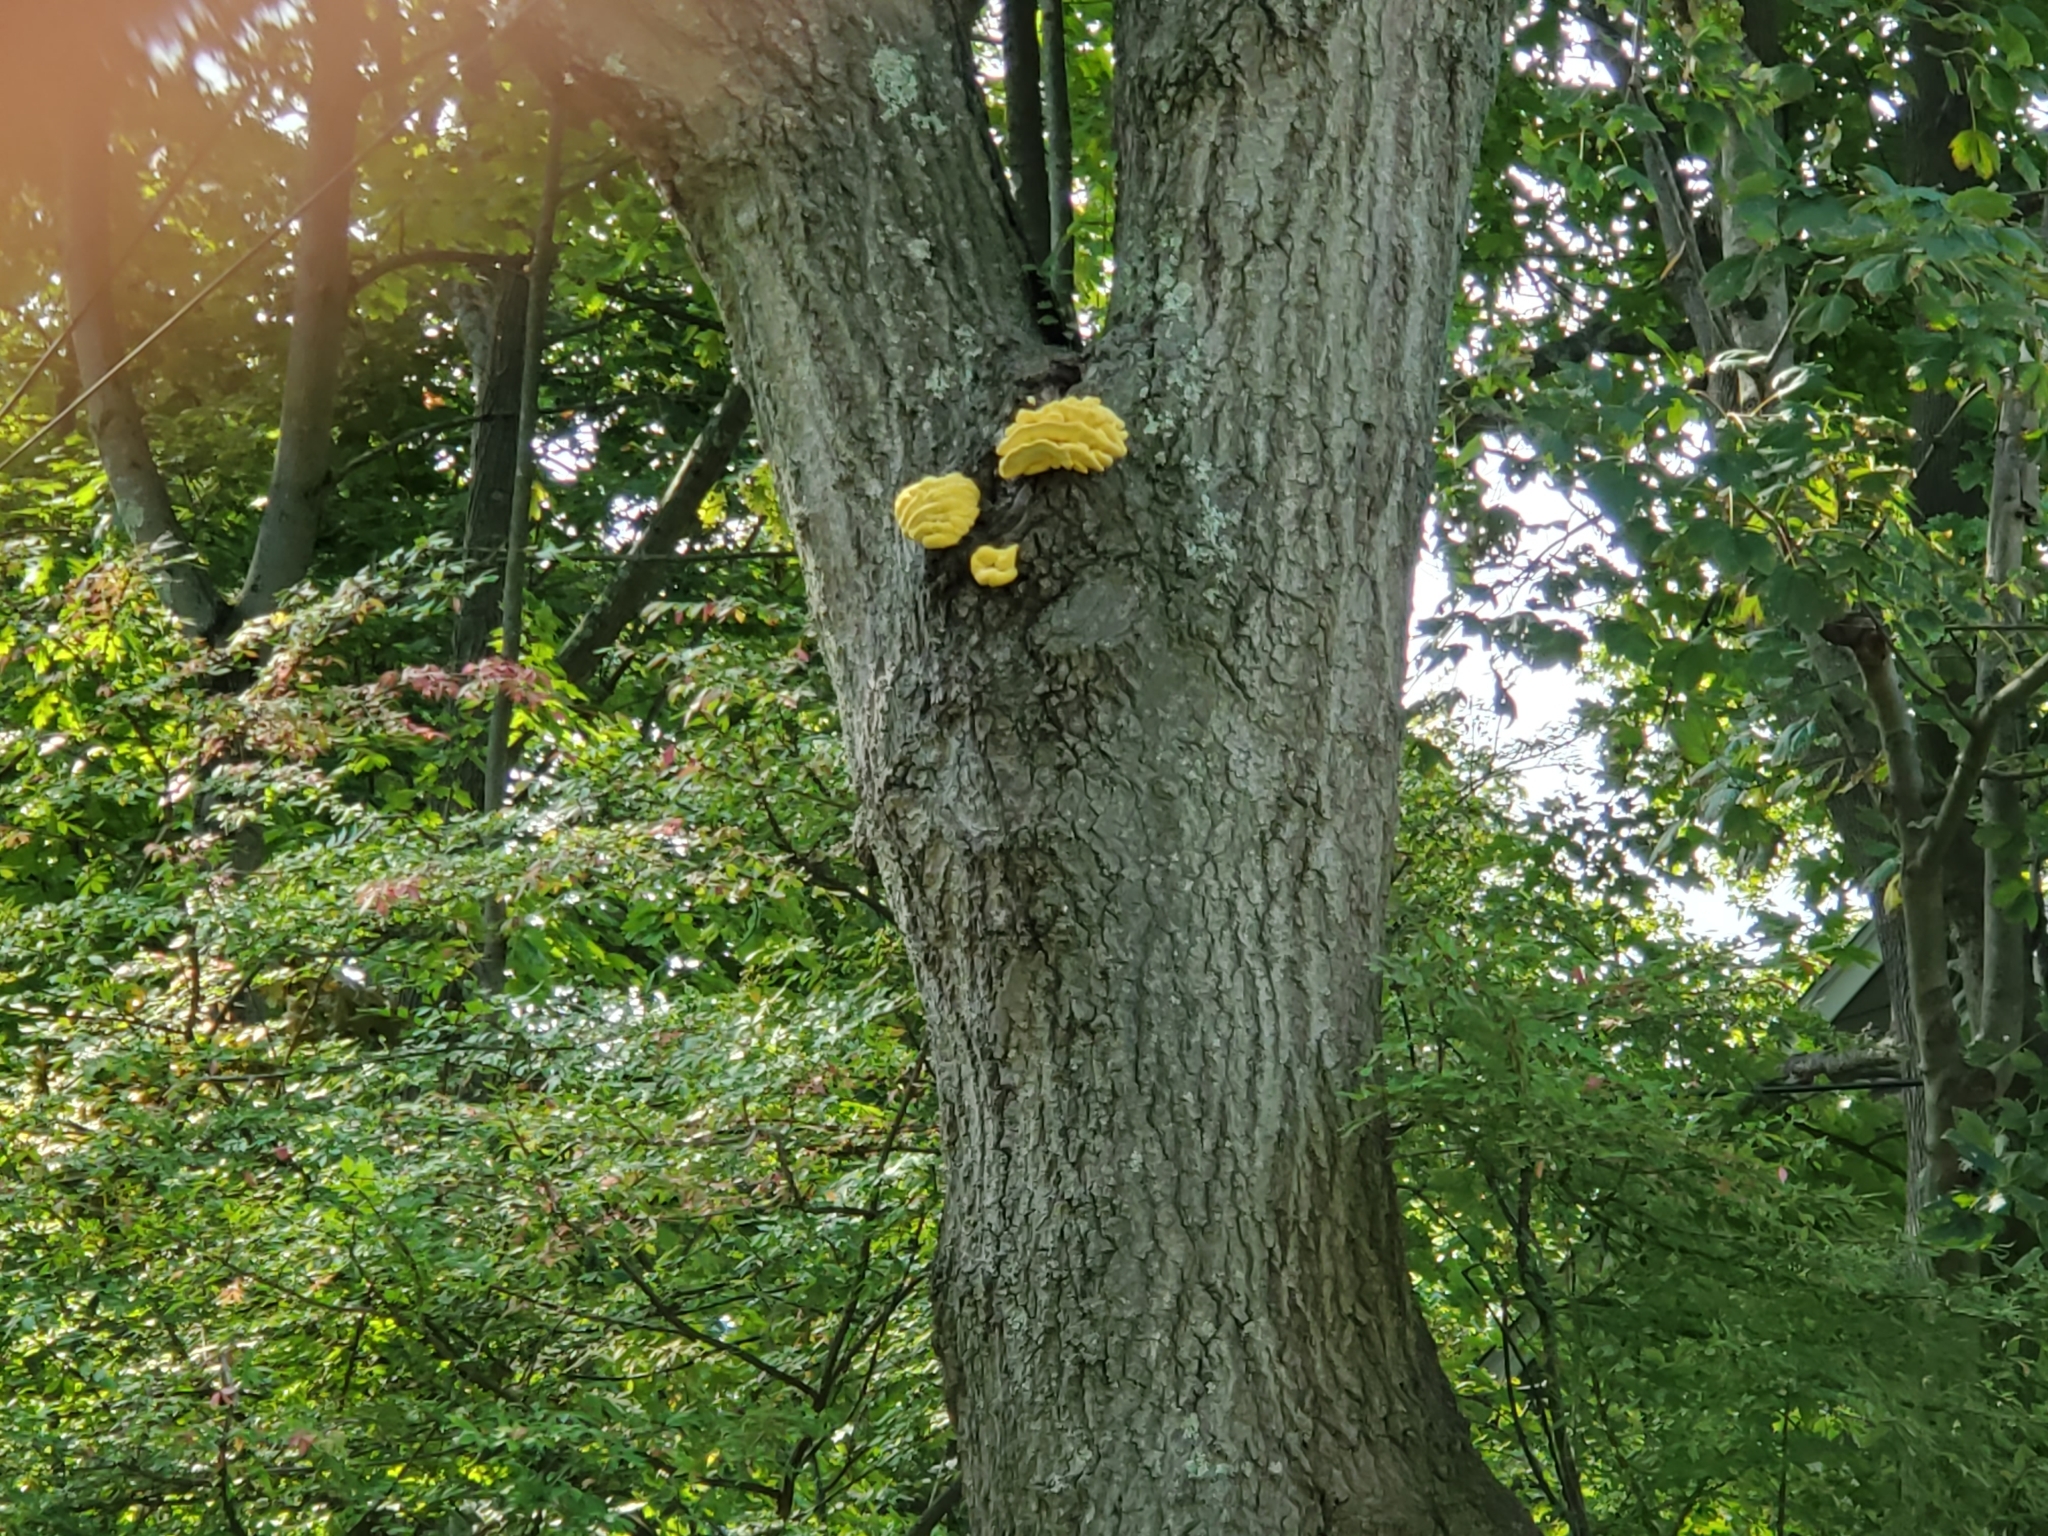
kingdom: Fungi
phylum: Basidiomycota
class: Agaricomycetes
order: Polyporales
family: Laetiporaceae
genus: Laetiporus
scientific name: Laetiporus sulphureus
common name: Chicken of the woods
